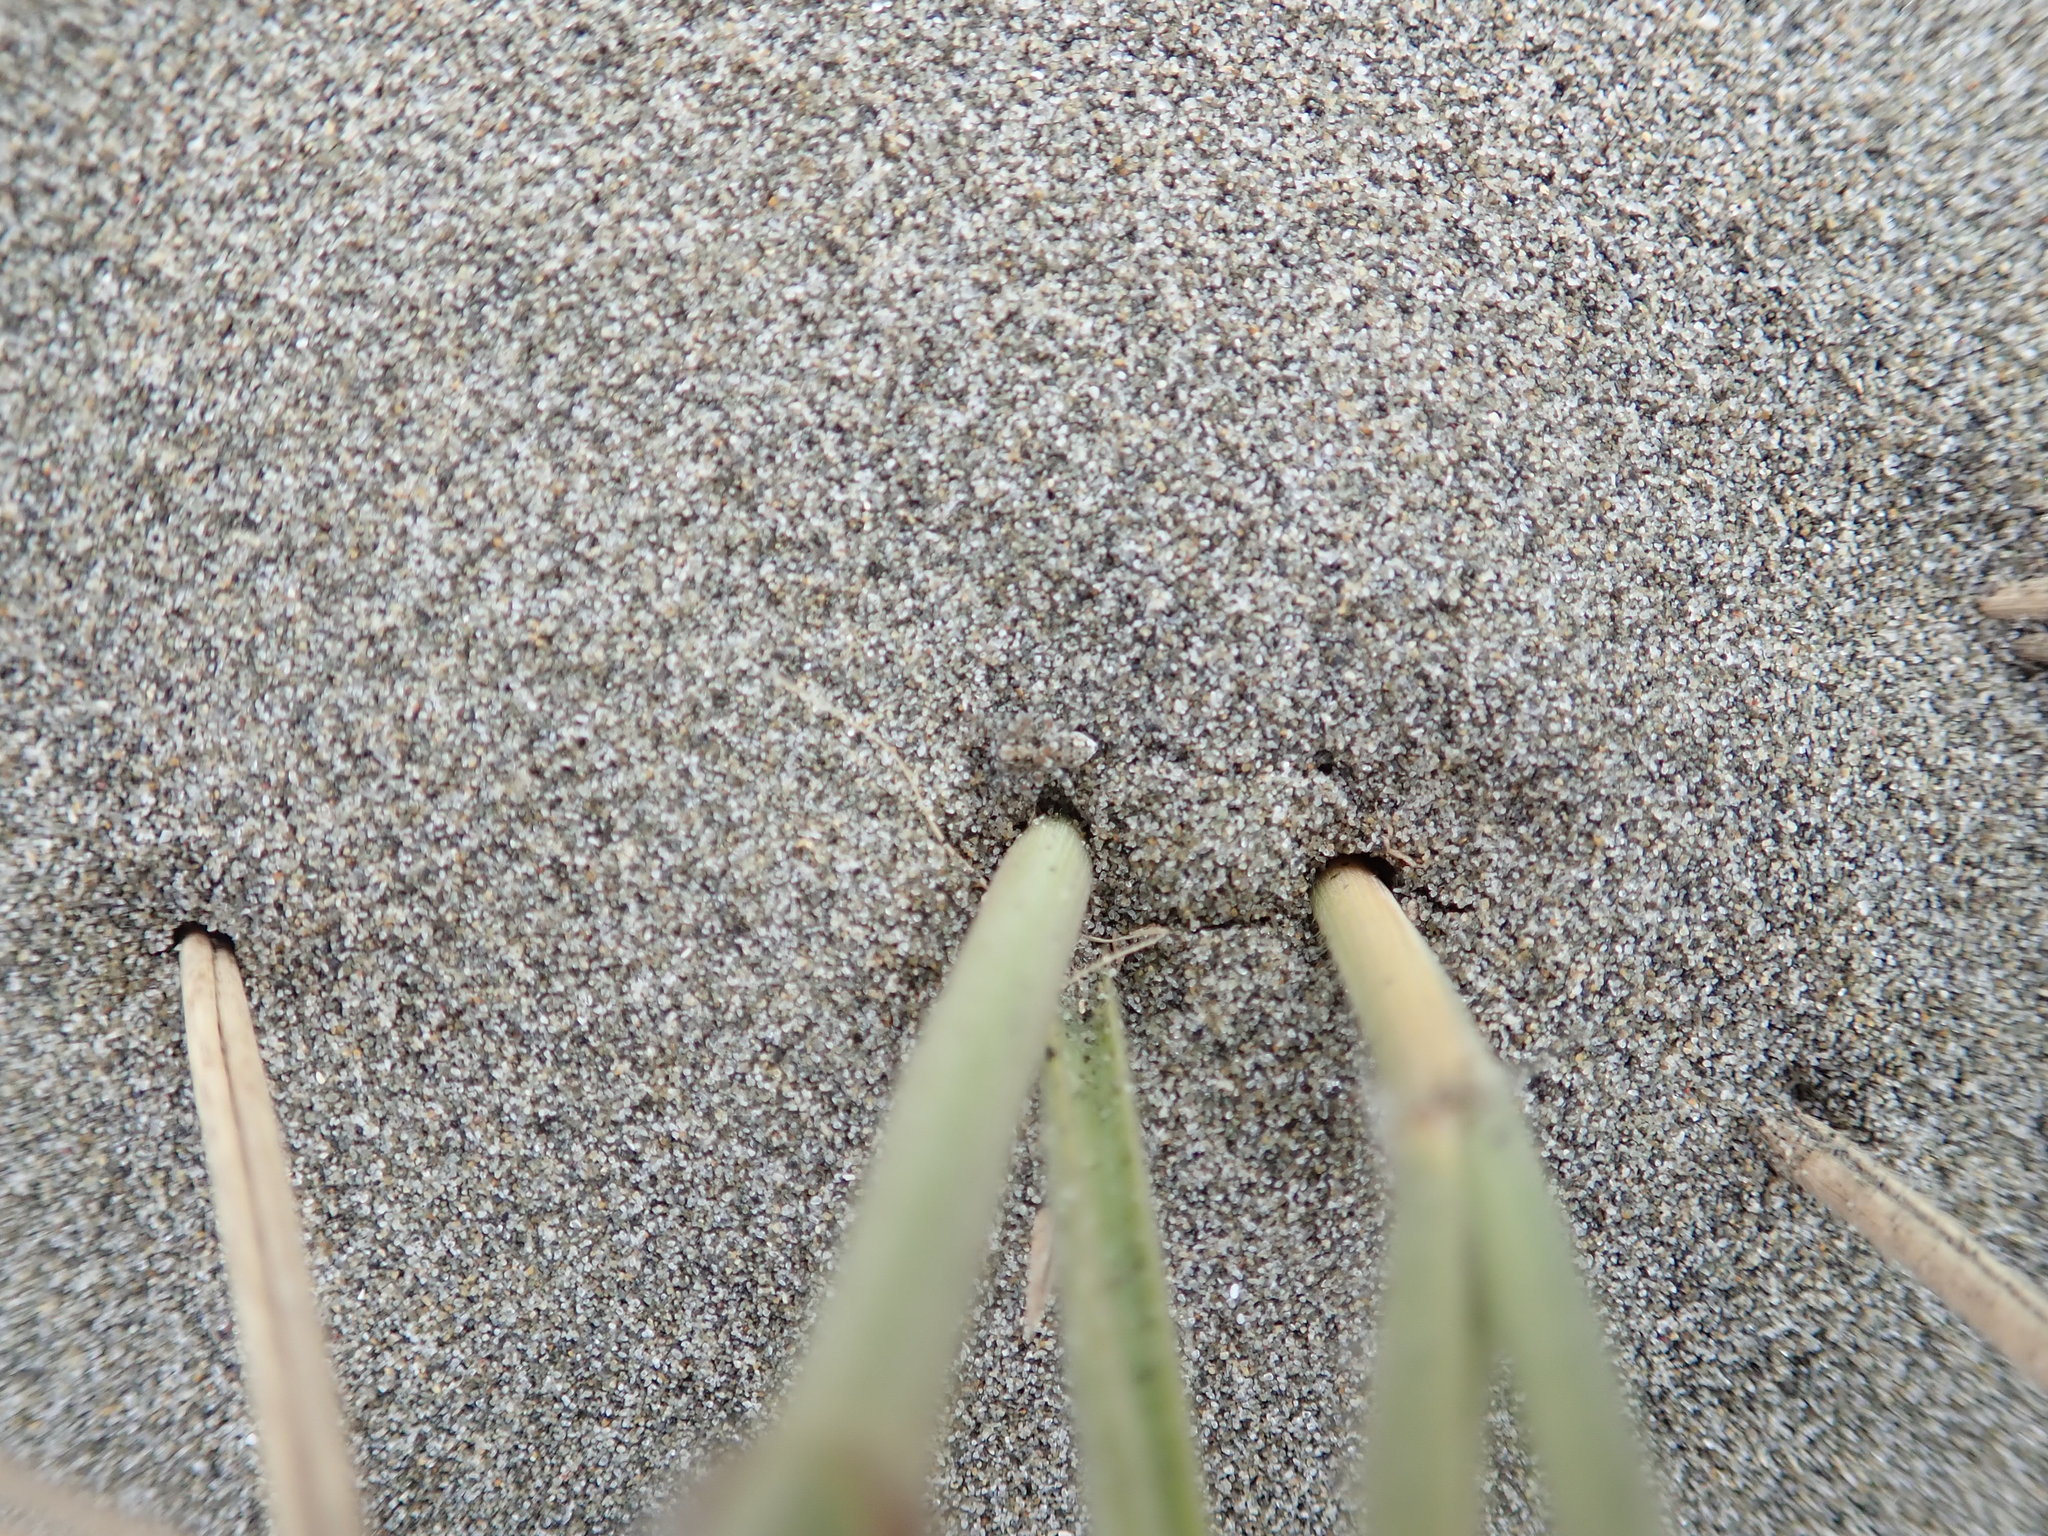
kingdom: Animalia
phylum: Arthropoda
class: Arachnida
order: Araneae
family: Lycosidae
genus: Anoteropsis
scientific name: Anoteropsis litoralis
